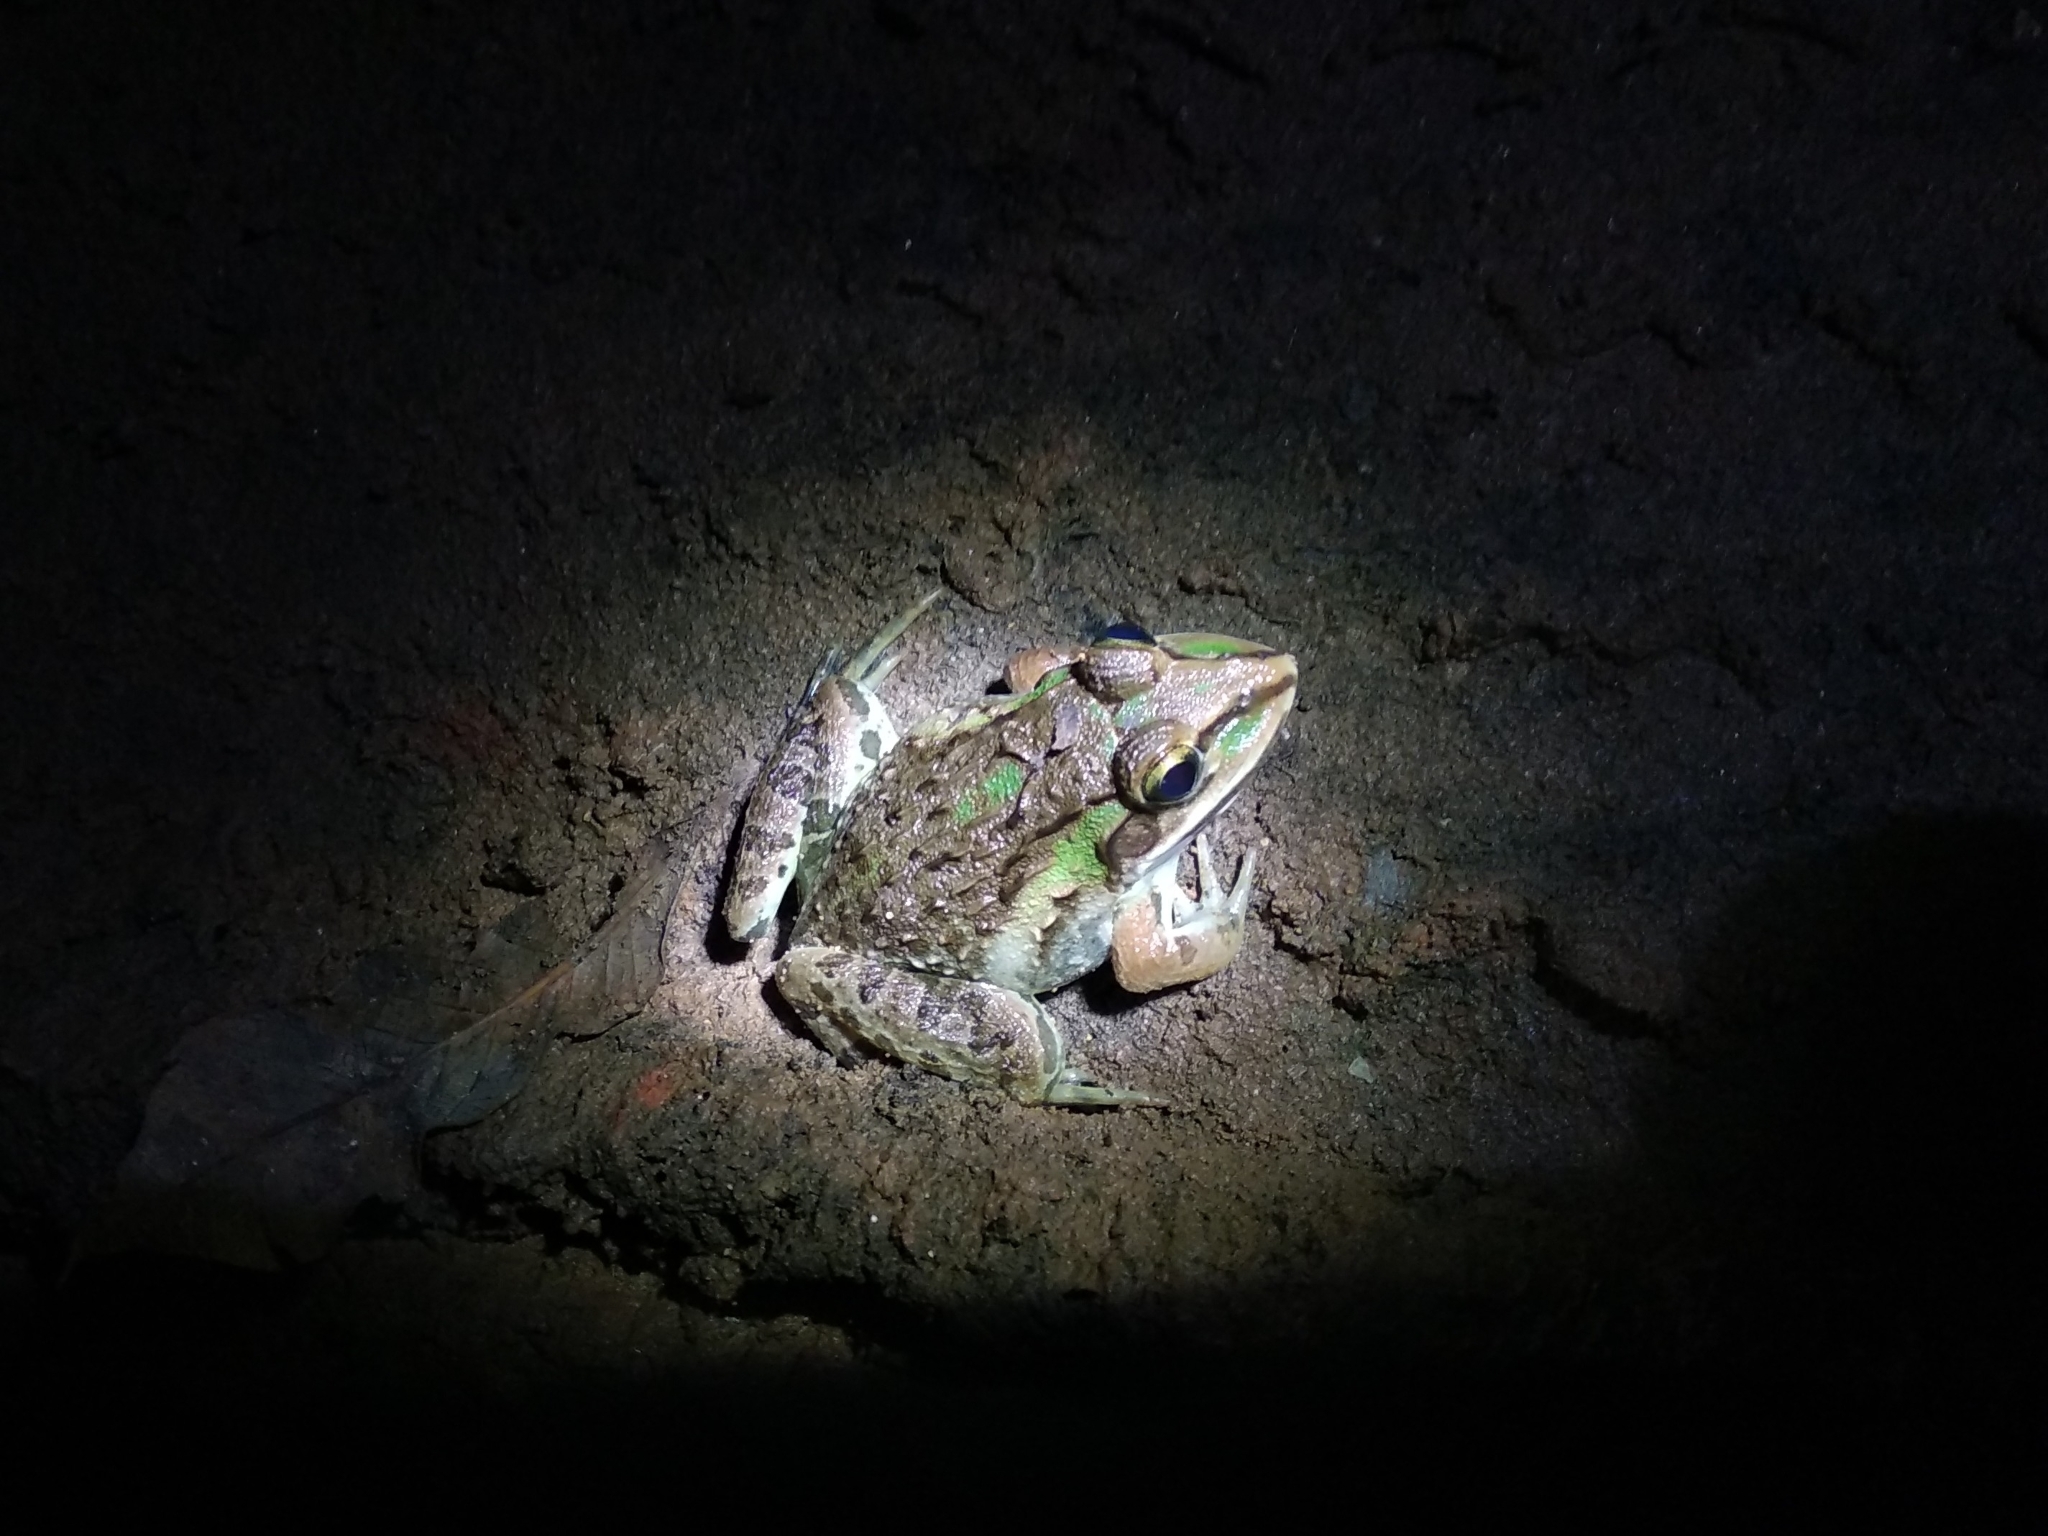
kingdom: Animalia
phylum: Chordata
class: Amphibia
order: Anura
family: Dicroglossidae
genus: Hoplobatrachus
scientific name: Hoplobatrachus tigerinus
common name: Indian bullfrog
